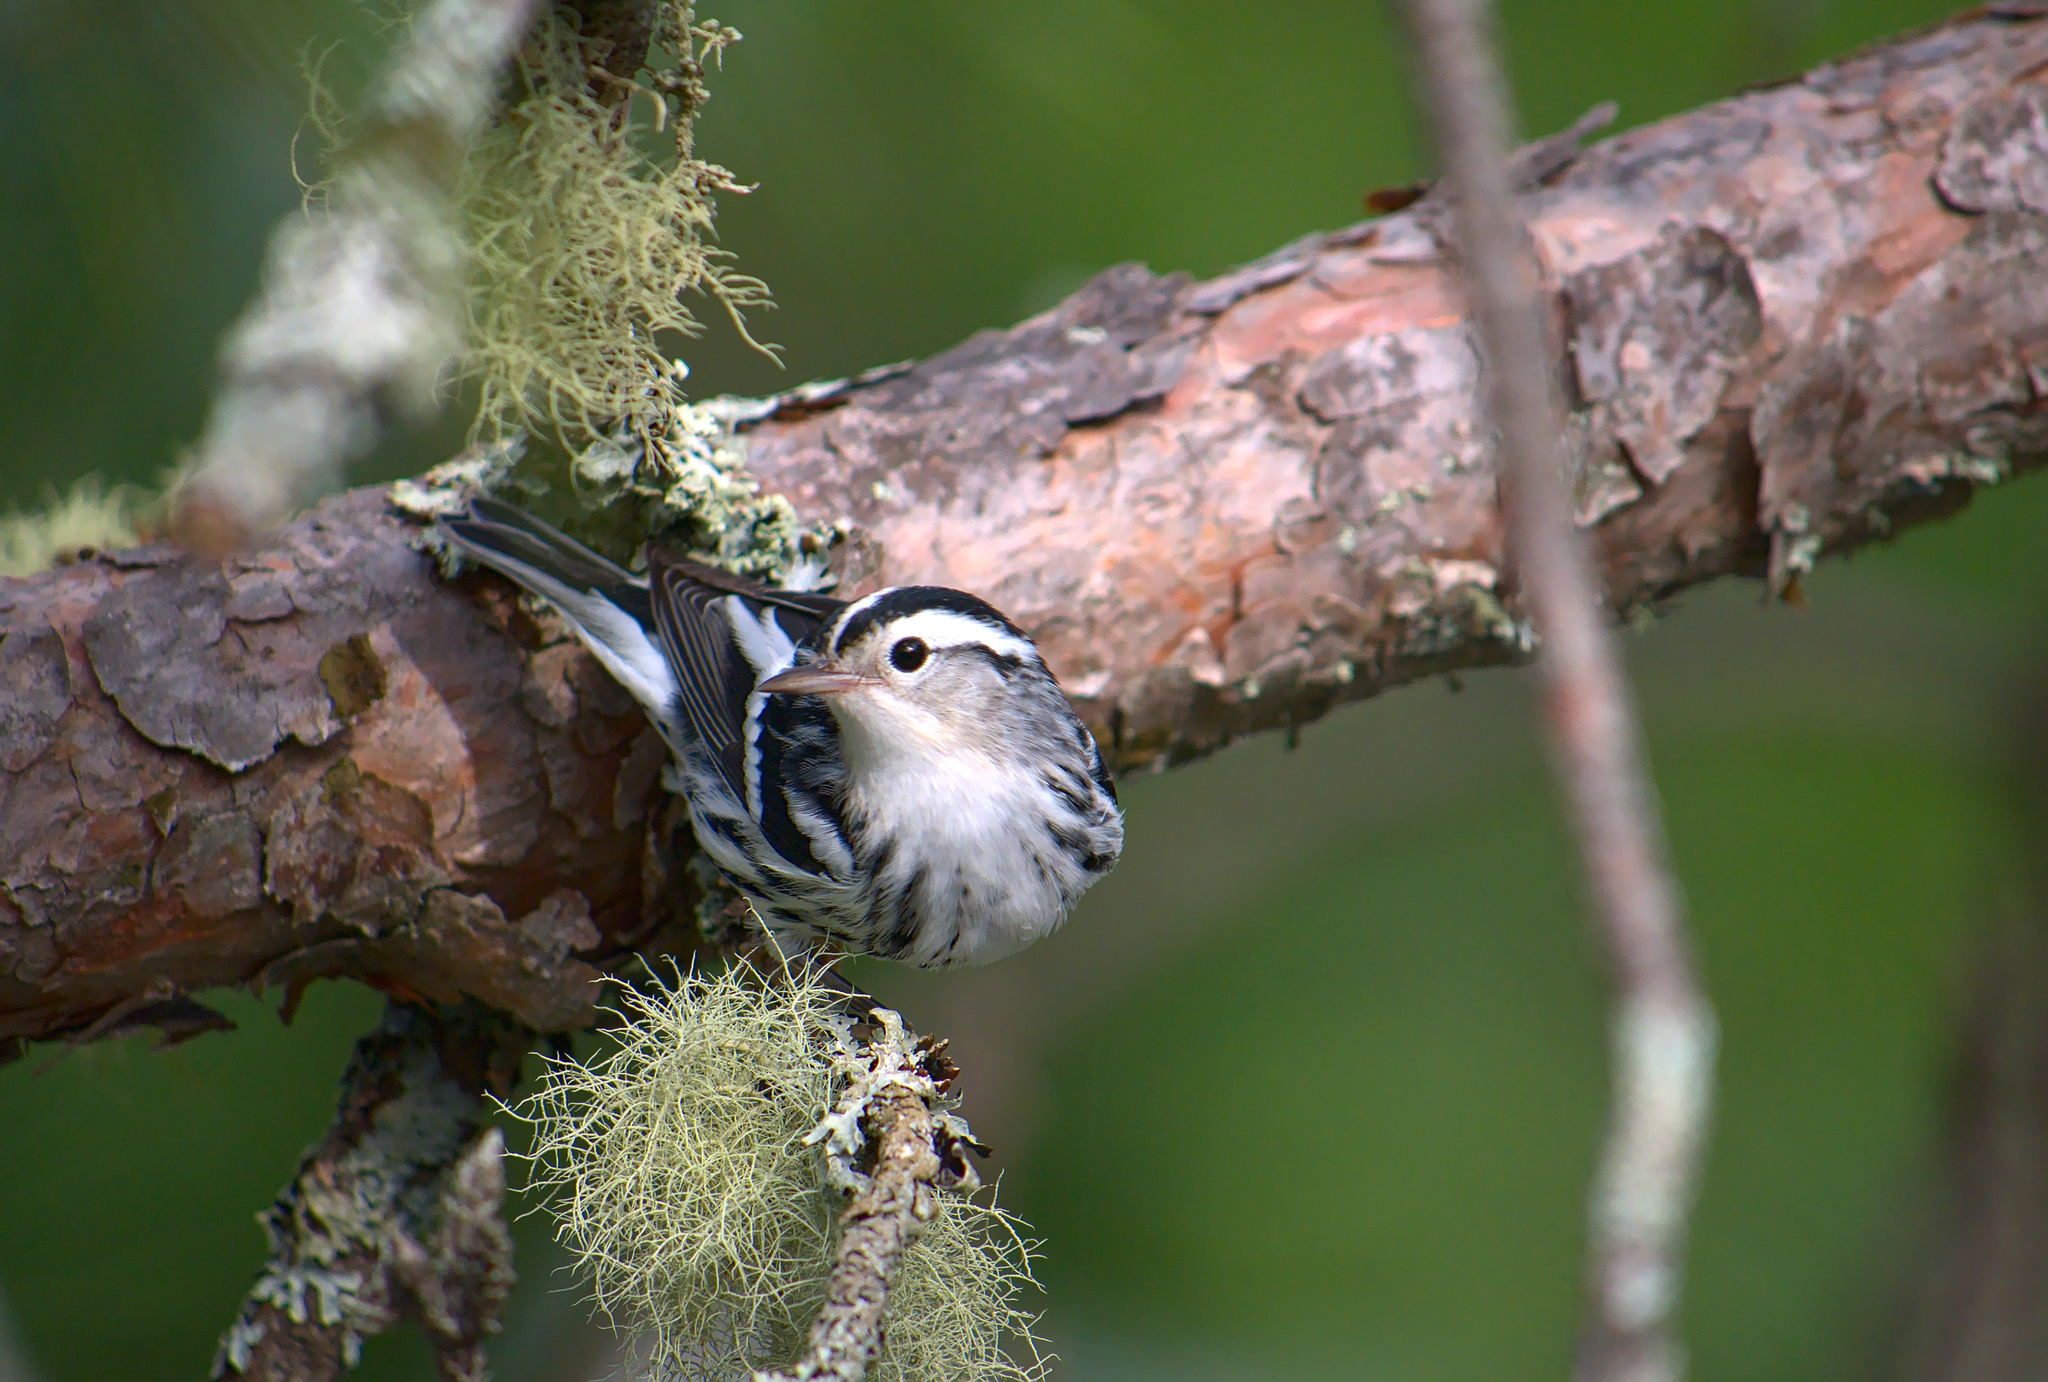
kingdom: Animalia
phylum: Chordata
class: Aves
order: Passeriformes
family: Parulidae
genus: Mniotilta
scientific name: Mniotilta varia
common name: Black-and-white warbler
